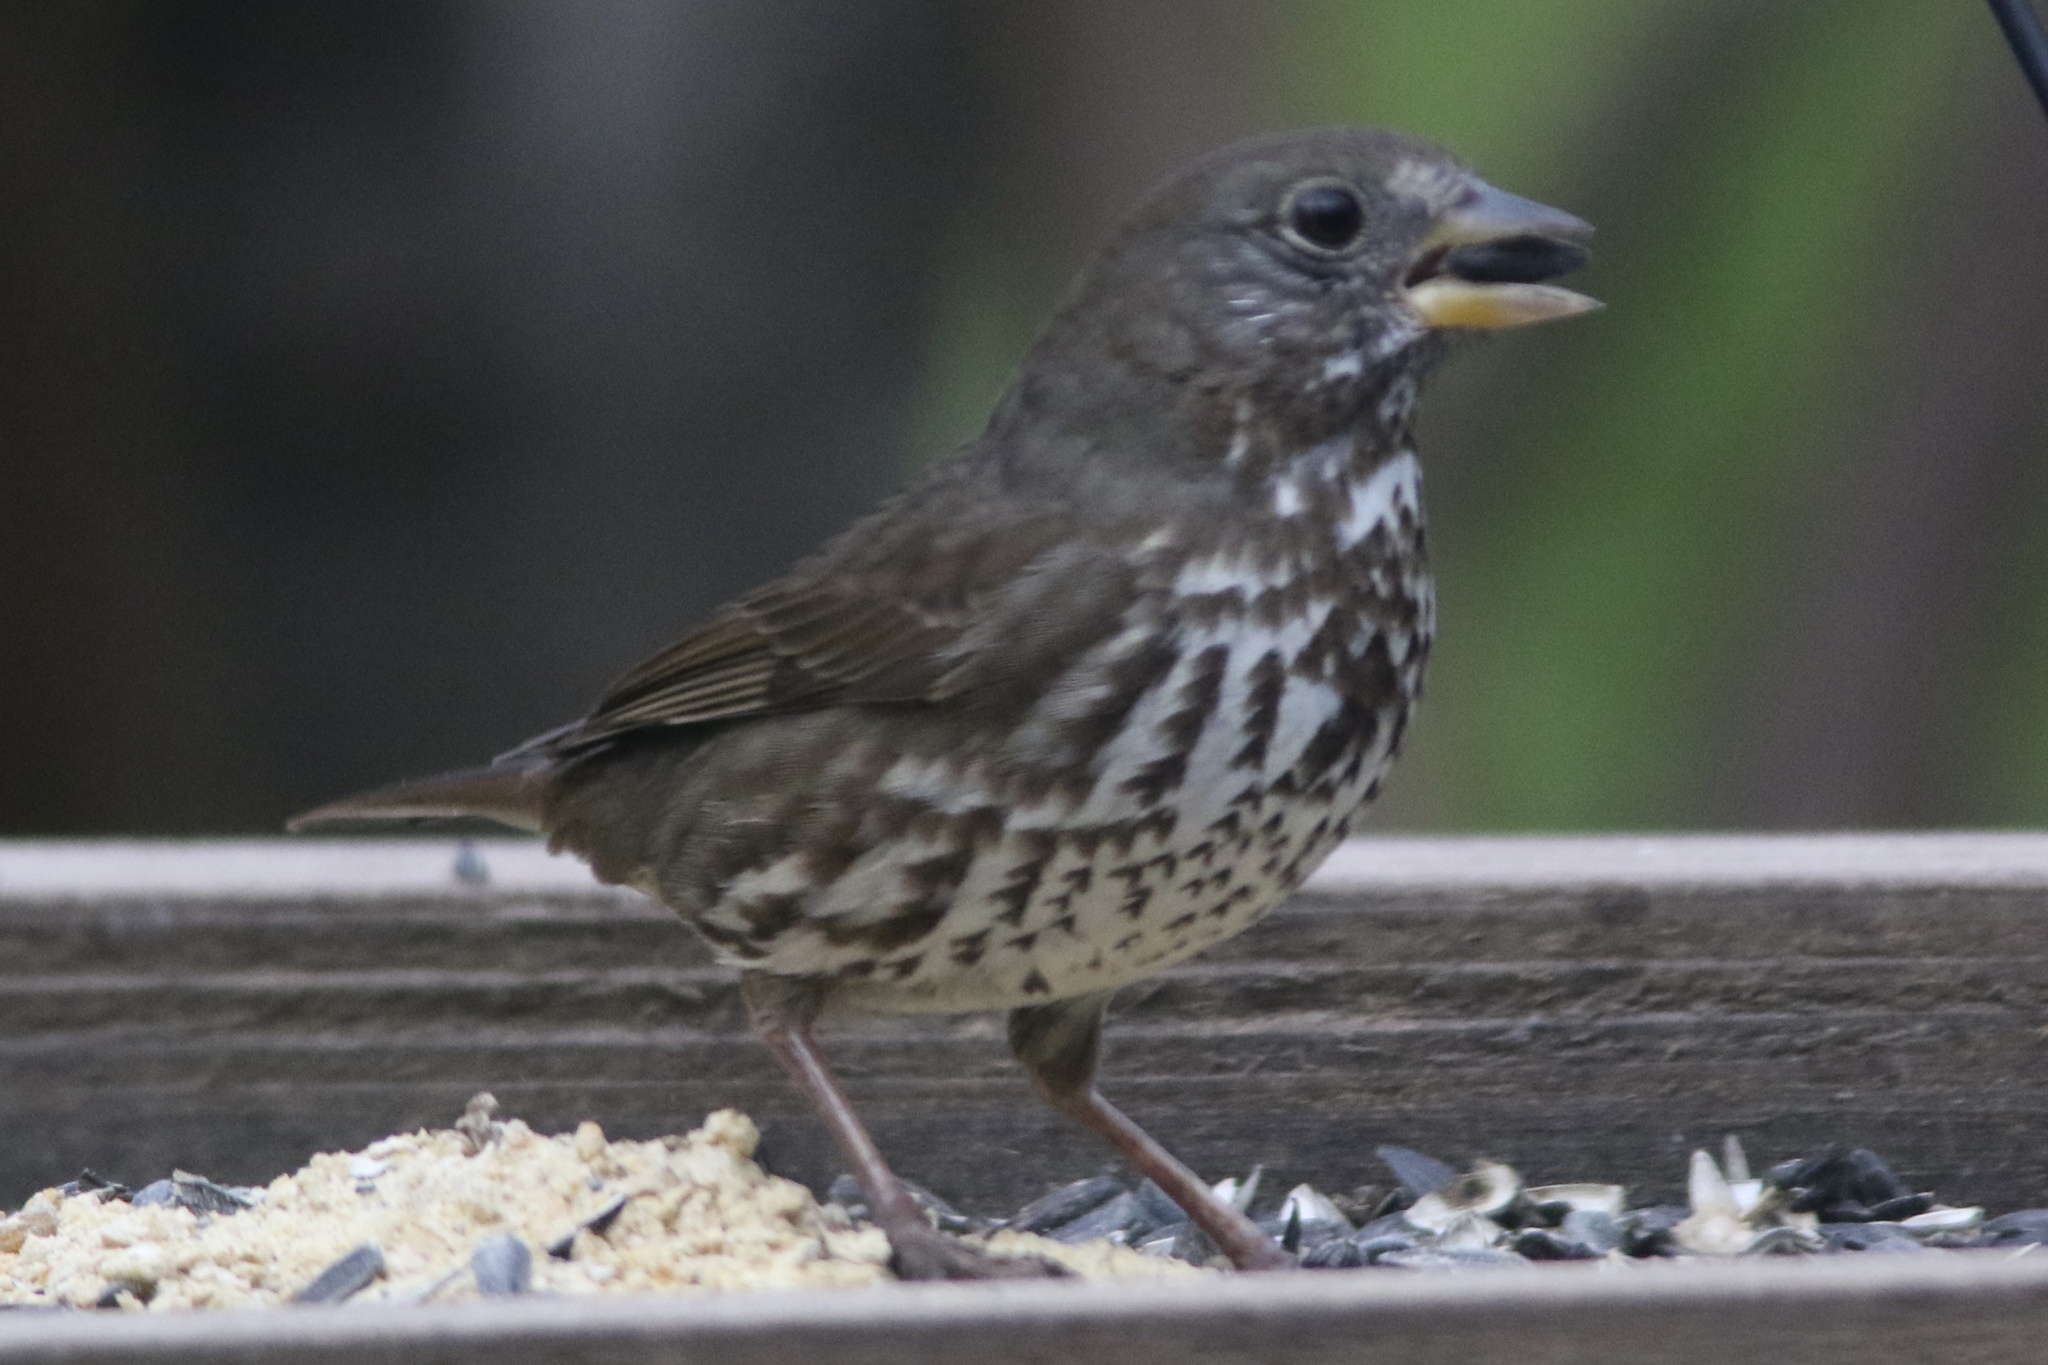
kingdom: Animalia
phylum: Chordata
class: Aves
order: Passeriformes
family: Passerellidae
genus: Passerella
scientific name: Passerella iliaca
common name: Fox sparrow
